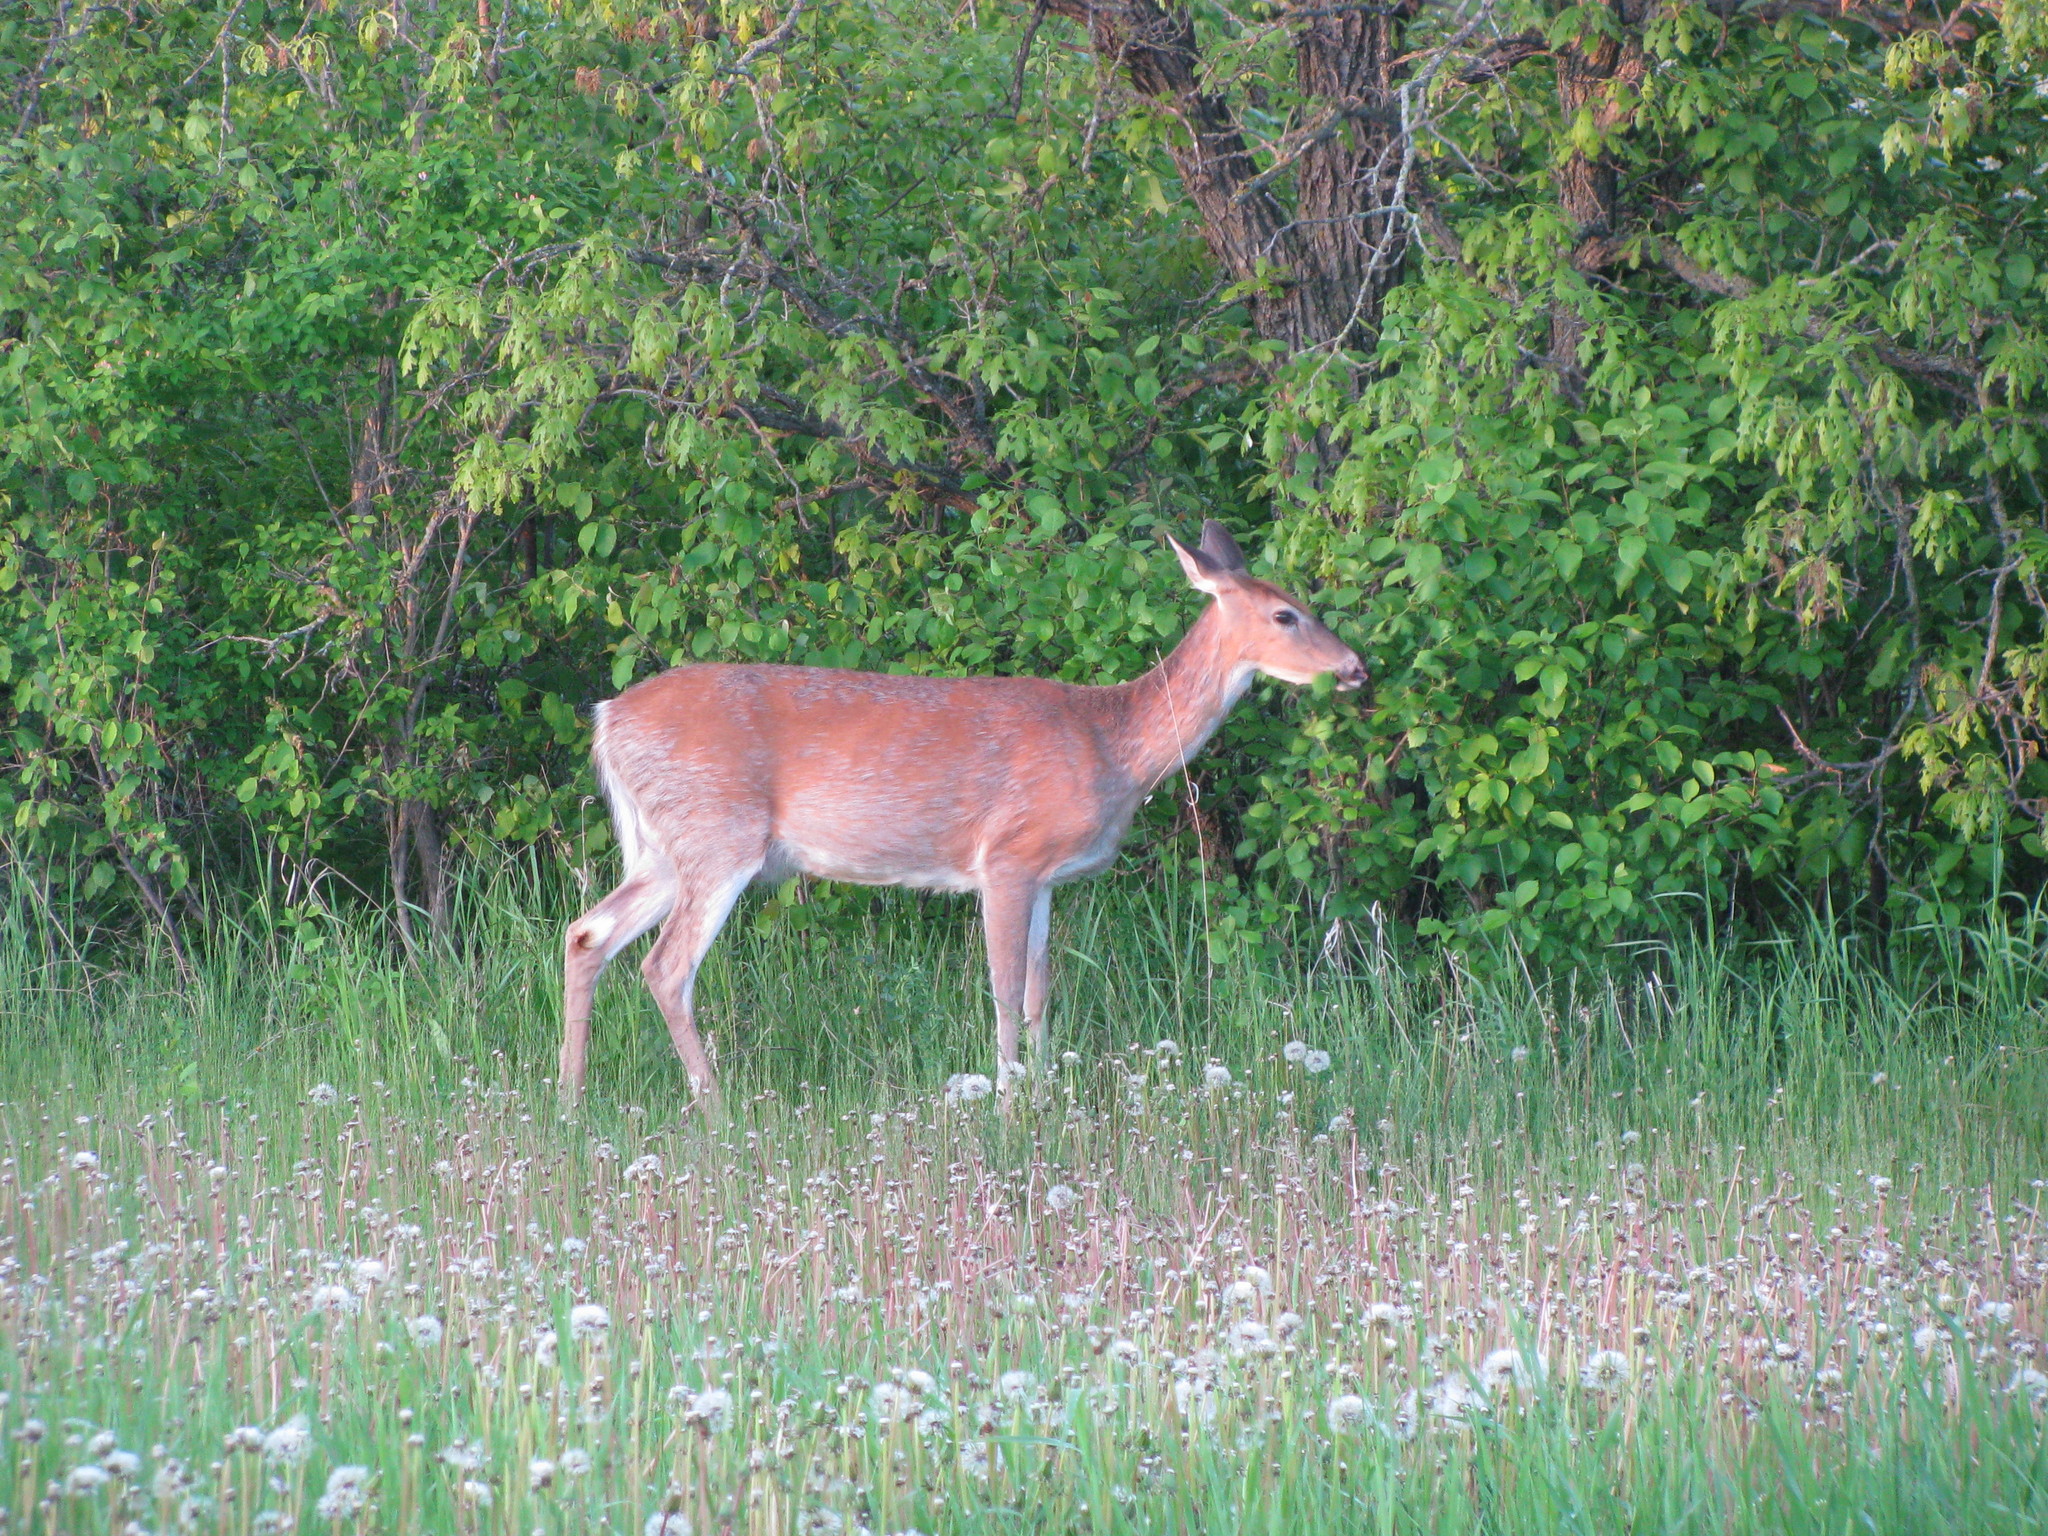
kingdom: Animalia
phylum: Chordata
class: Mammalia
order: Artiodactyla
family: Cervidae
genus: Odocoileus
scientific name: Odocoileus virginianus
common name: White-tailed deer
